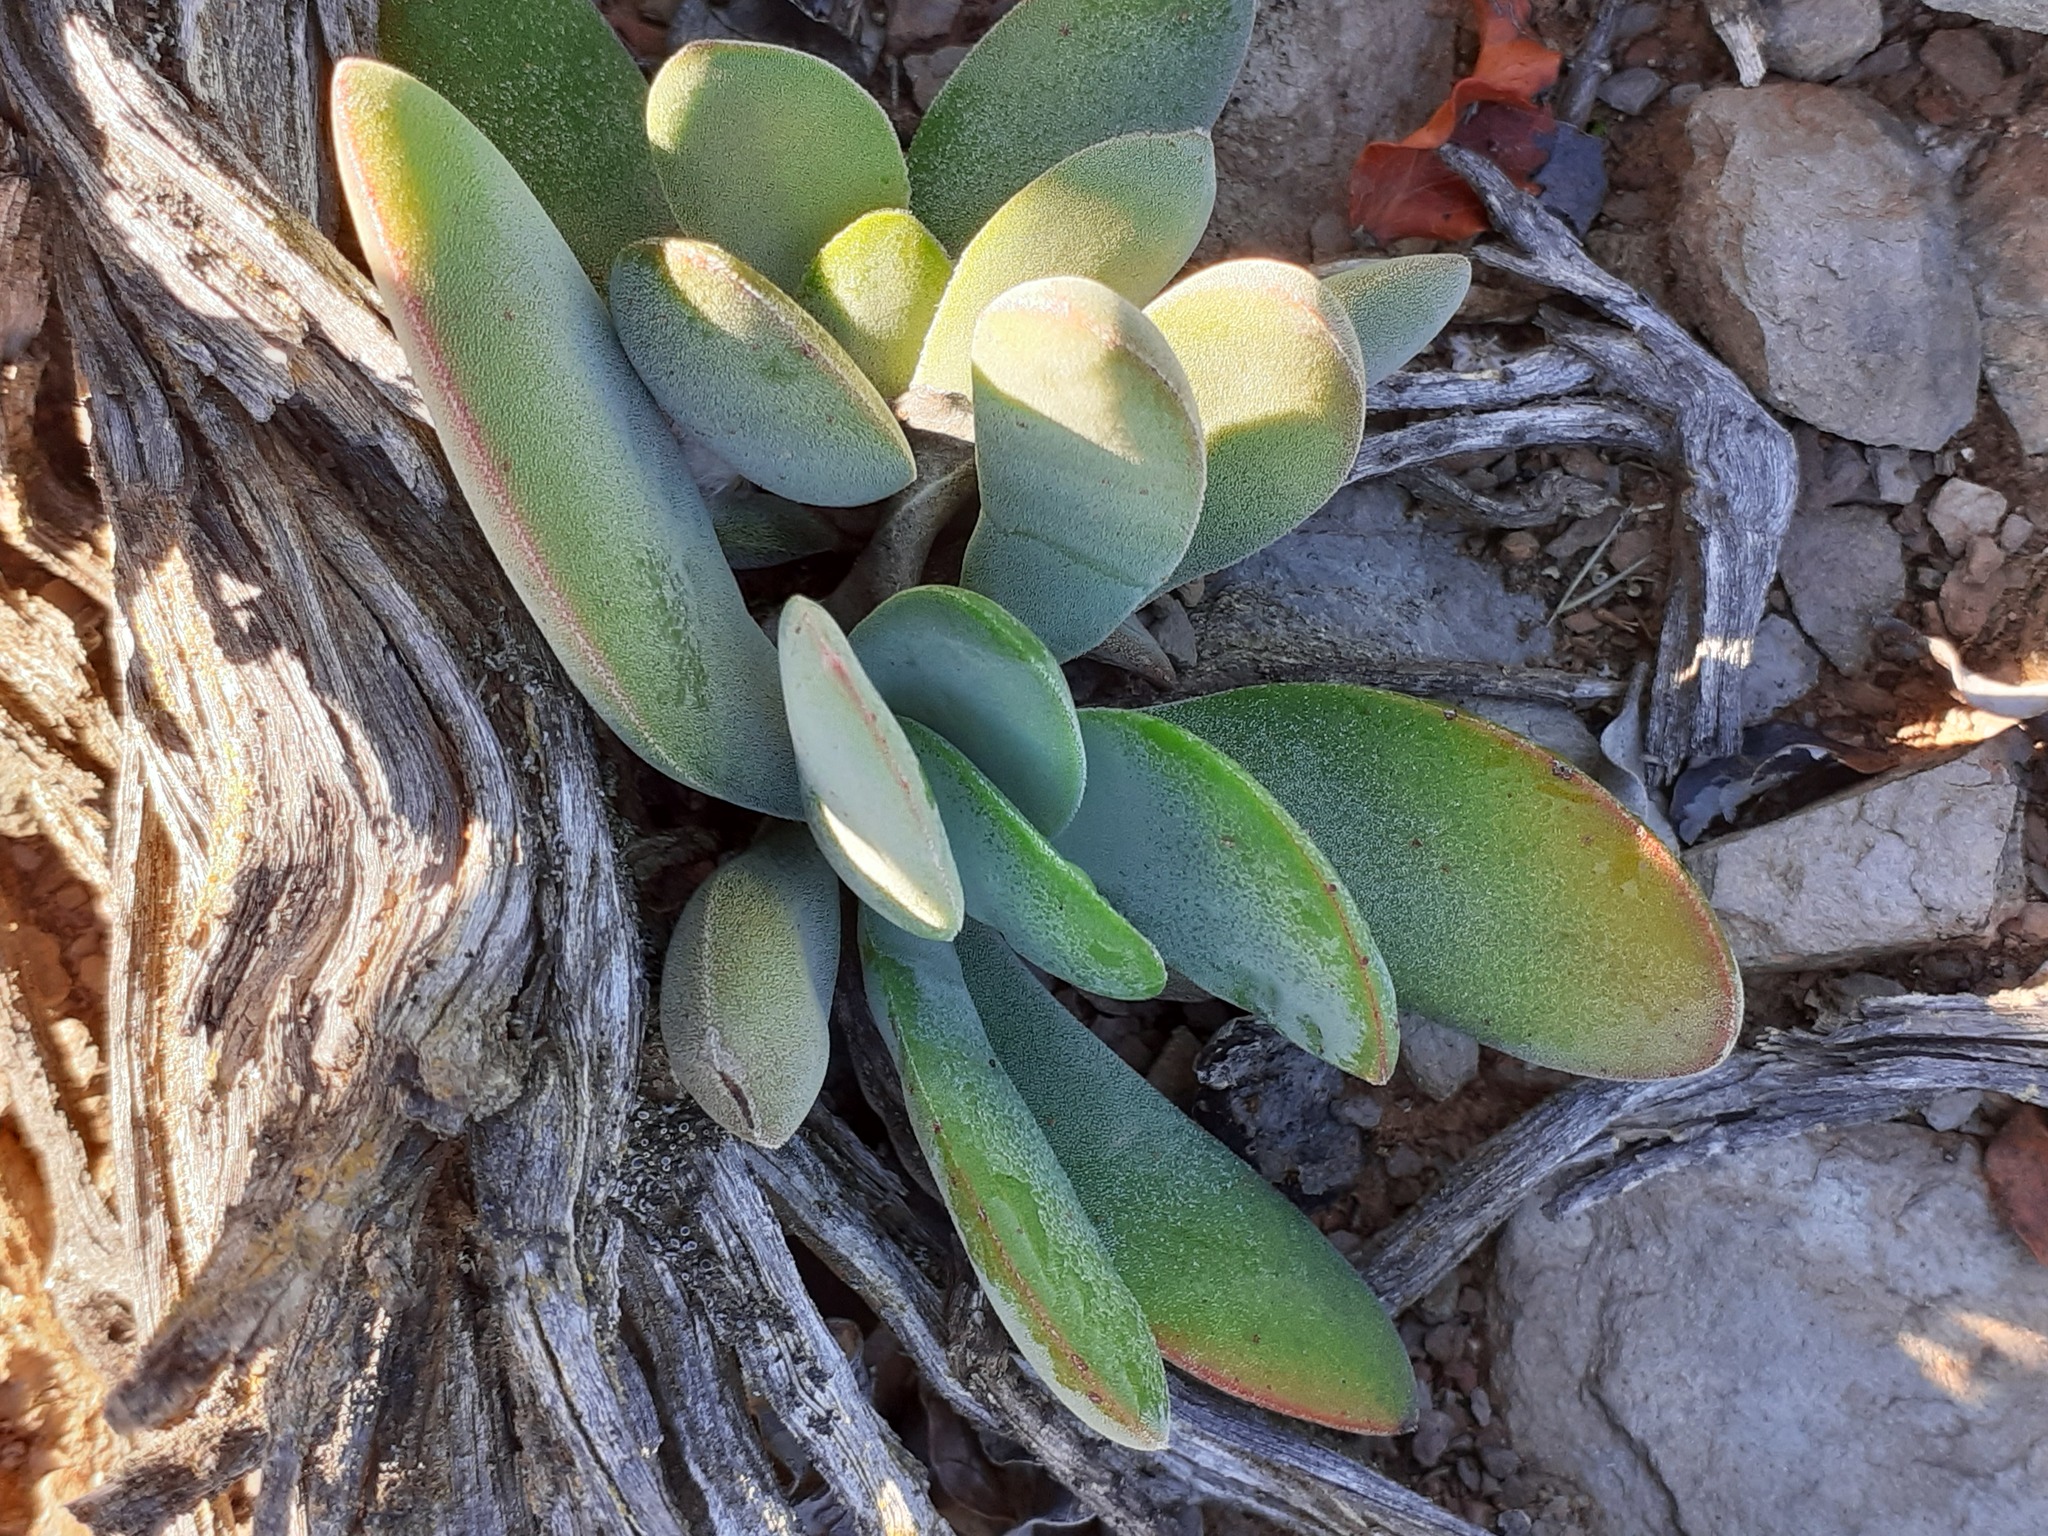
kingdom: Plantae
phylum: Tracheophyta
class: Magnoliopsida
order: Saxifragales
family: Crassulaceae
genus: Crassula
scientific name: Crassula cotyledonis
